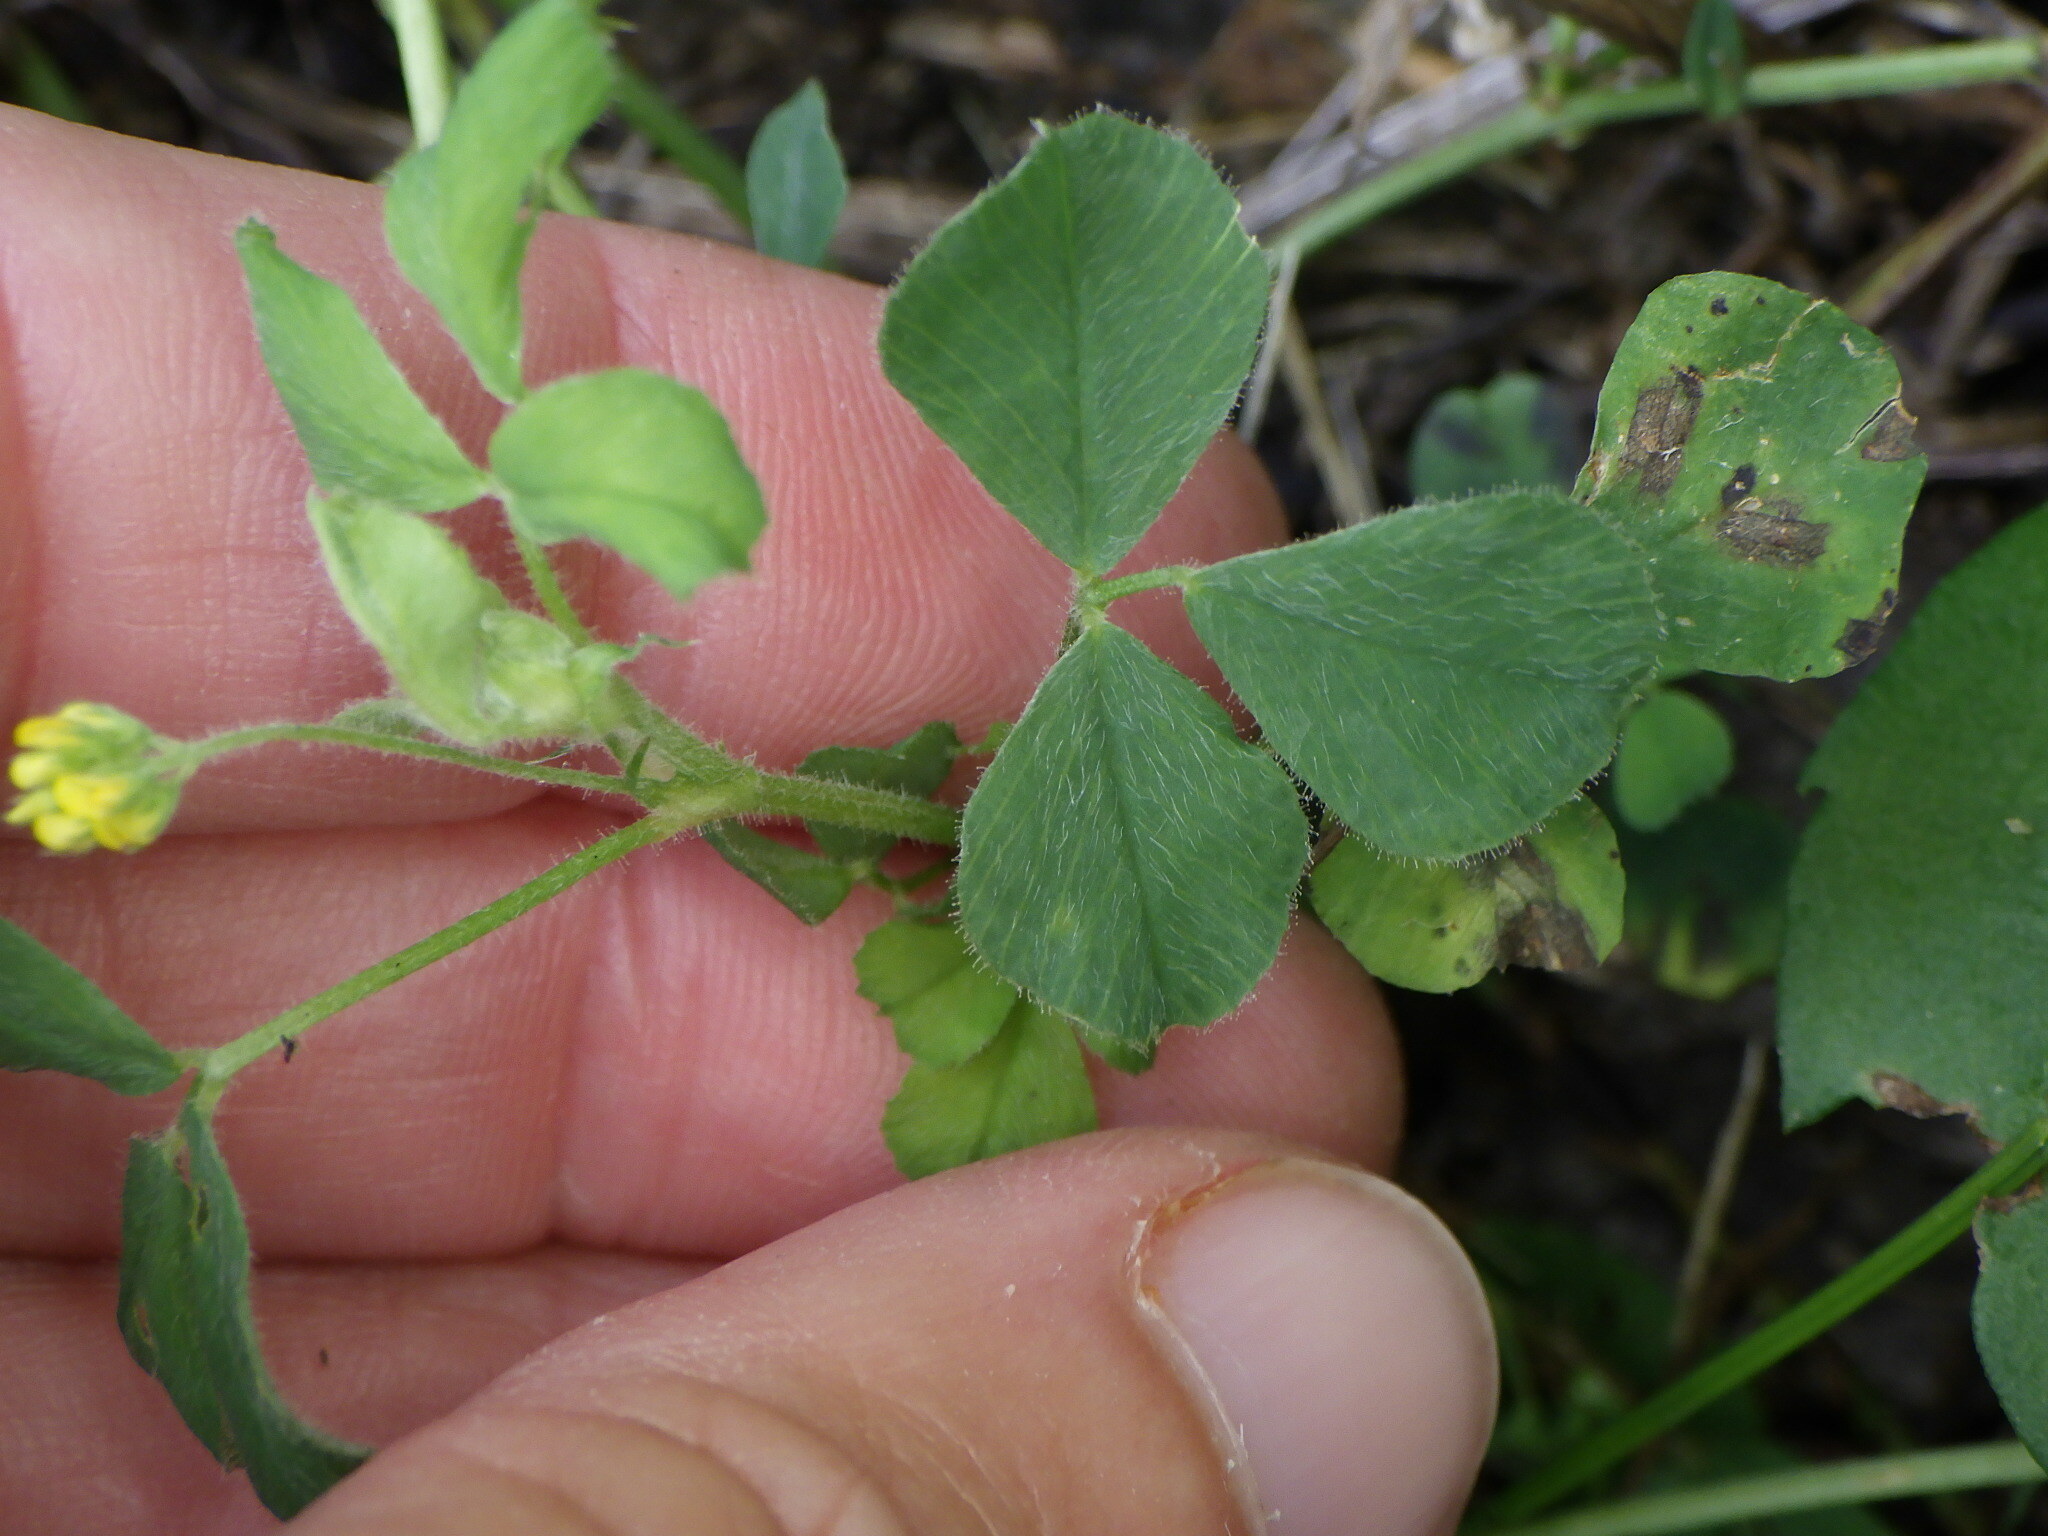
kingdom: Plantae
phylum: Tracheophyta
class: Magnoliopsida
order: Fabales
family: Fabaceae
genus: Medicago
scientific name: Medicago lupulina
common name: Black medick
